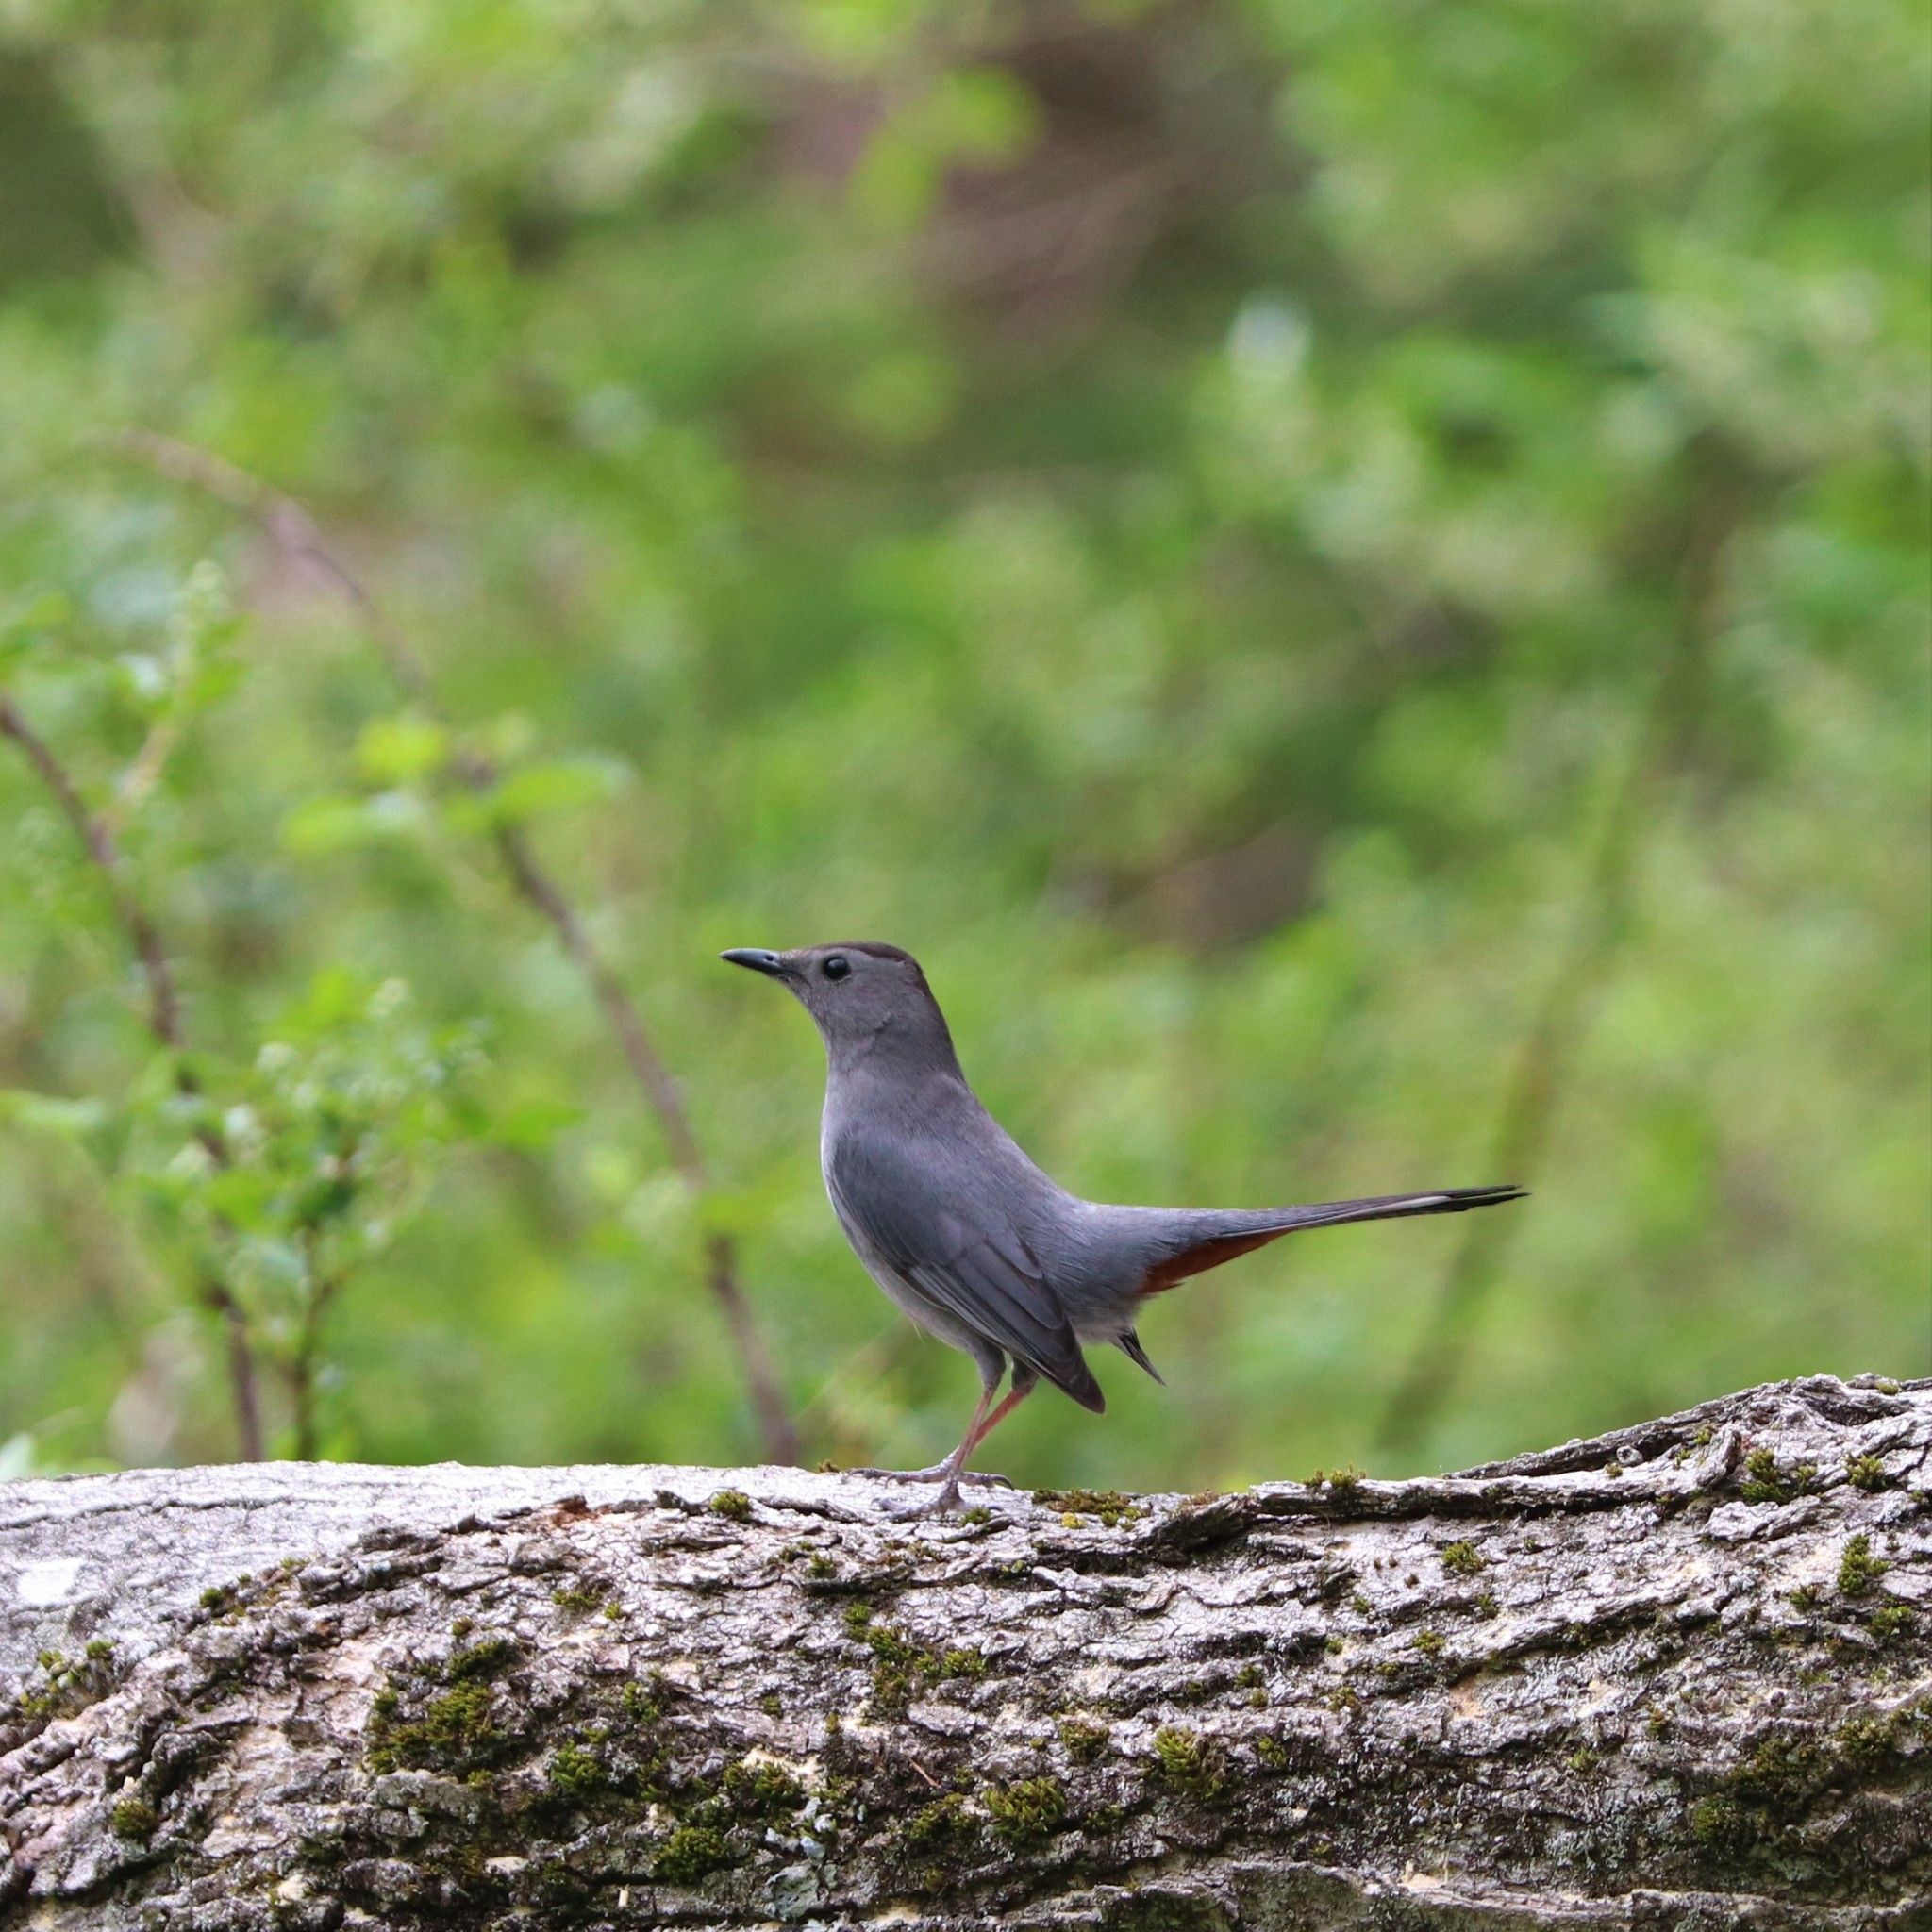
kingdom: Animalia
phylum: Chordata
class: Aves
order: Passeriformes
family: Mimidae
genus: Dumetella
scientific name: Dumetella carolinensis
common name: Gray catbird
